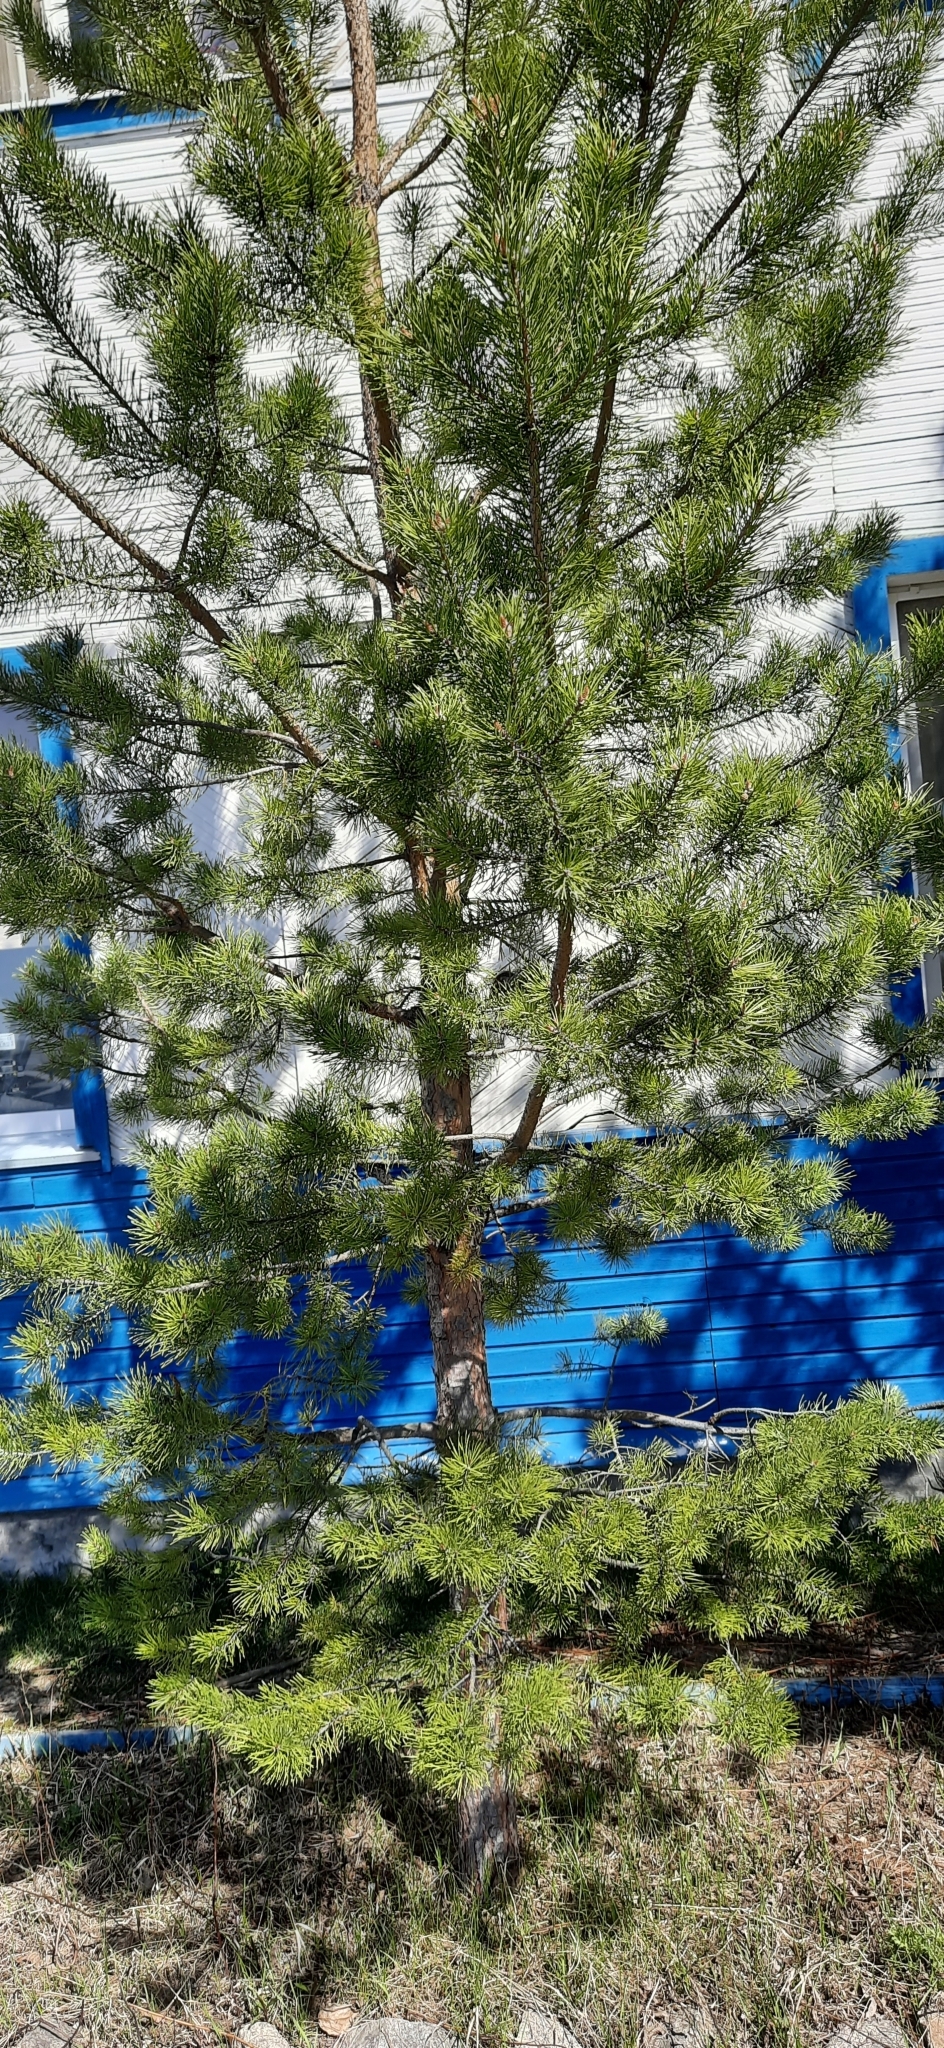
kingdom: Plantae
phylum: Tracheophyta
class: Magnoliopsida
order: Ericales
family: Ericaceae
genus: Rhododendron
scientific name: Rhododendron tomentosum
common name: Marsh labrador tea
